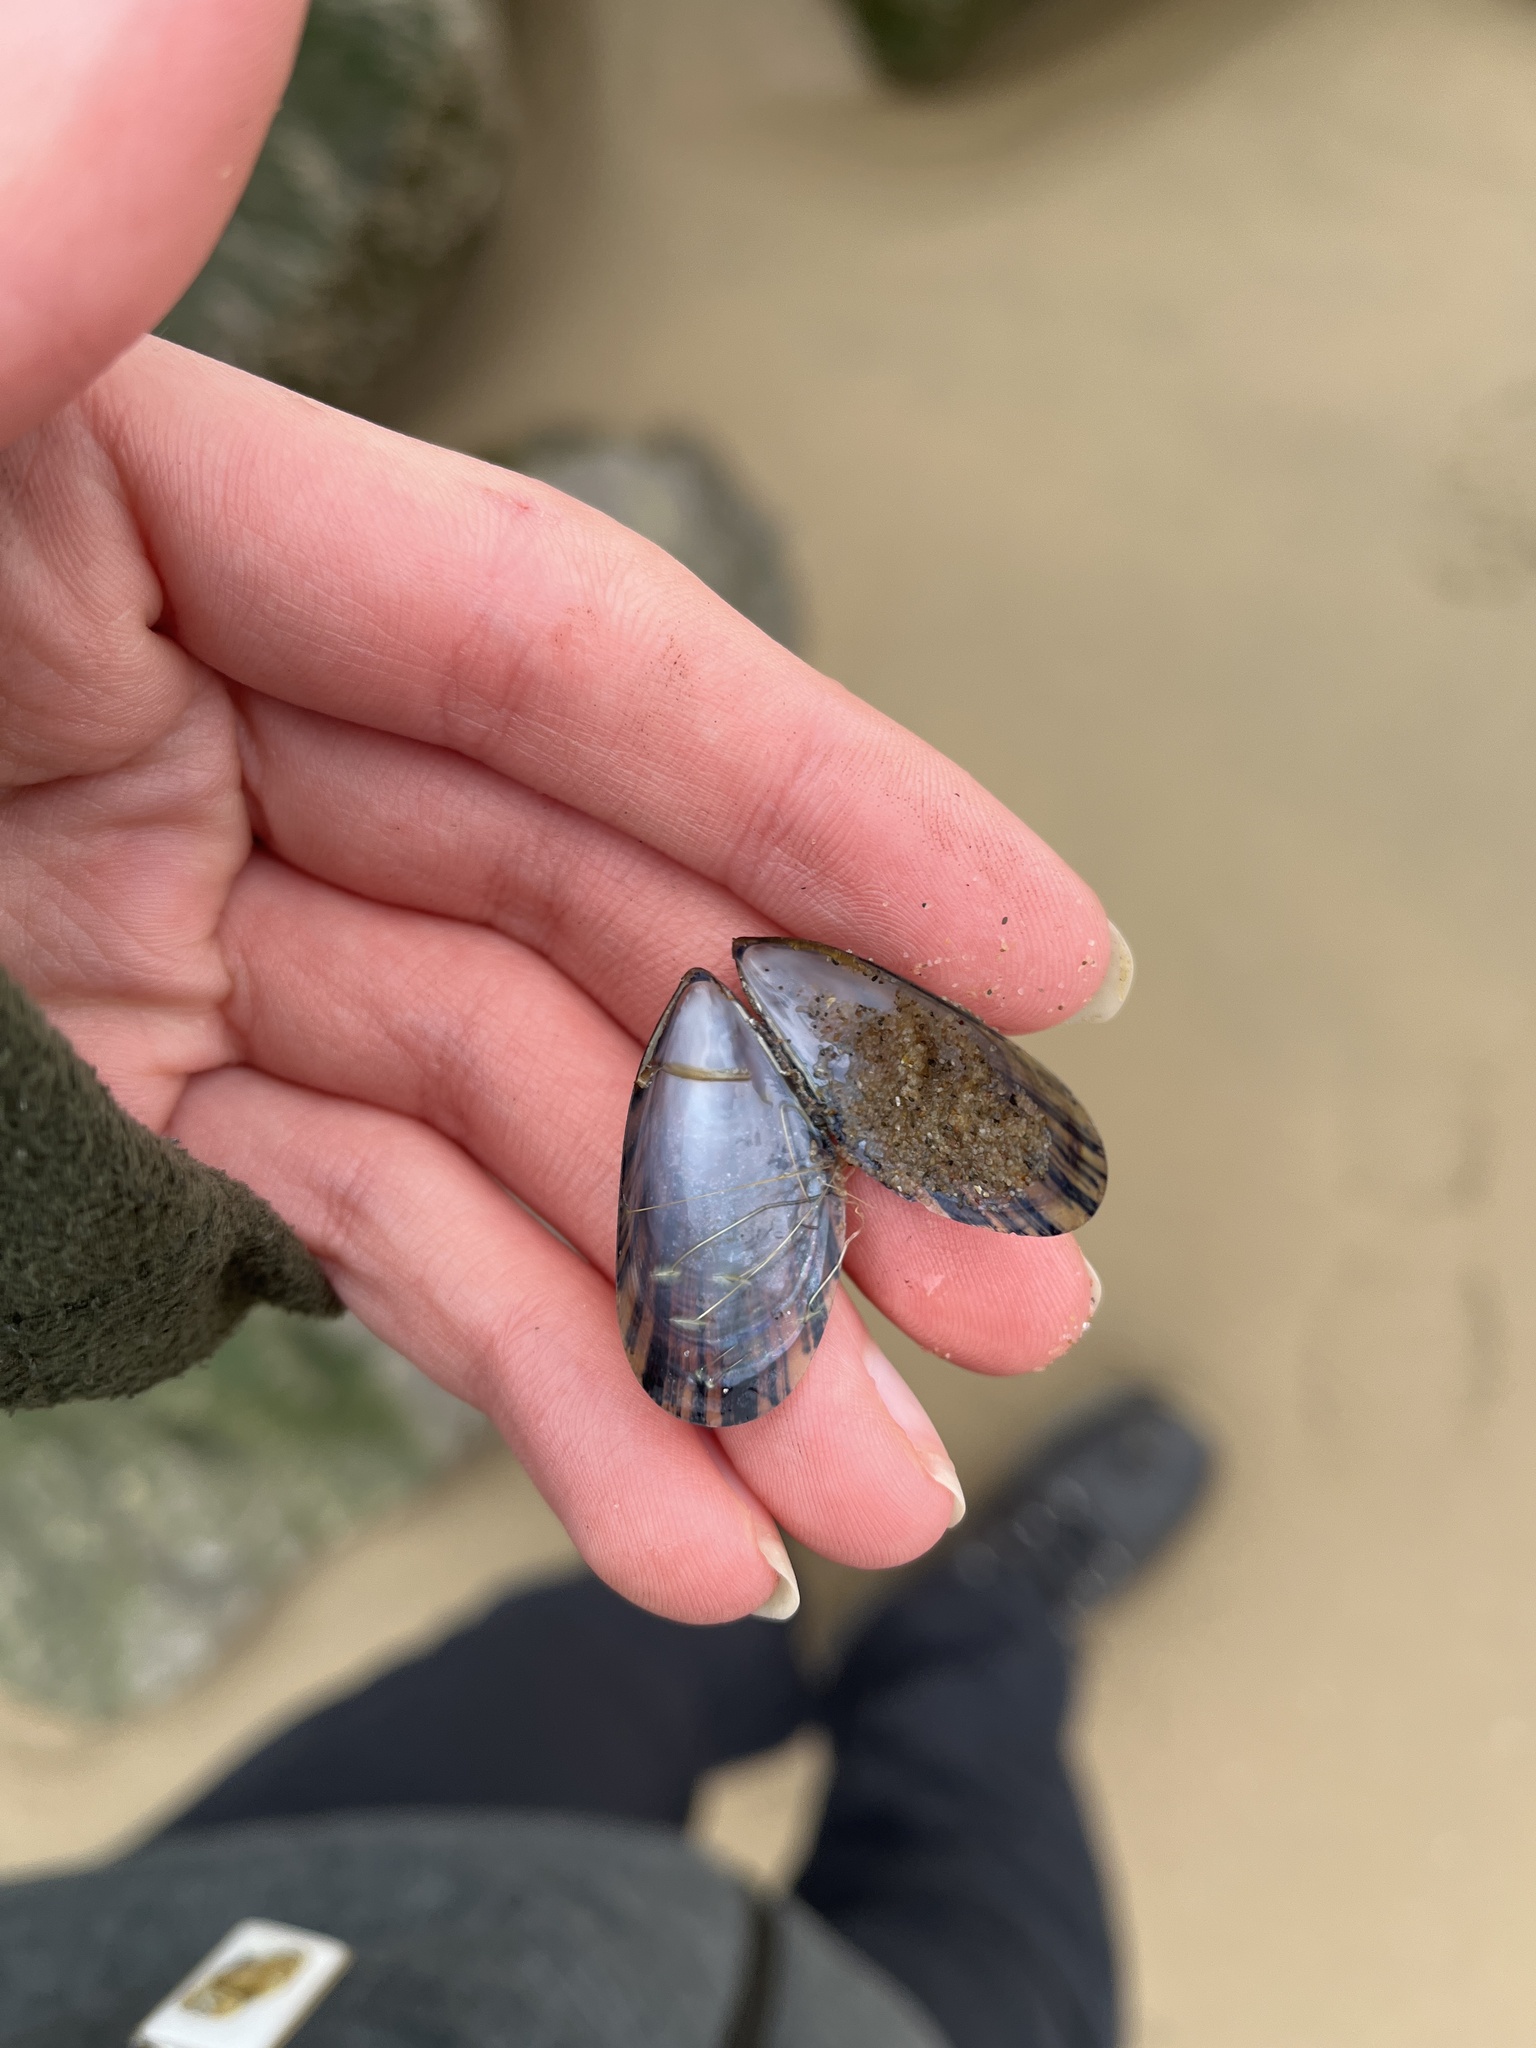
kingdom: Animalia
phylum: Mollusca
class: Bivalvia
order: Mytilida
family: Mytilidae
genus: Mytilus
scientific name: Mytilus edulis
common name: Blue mussel
